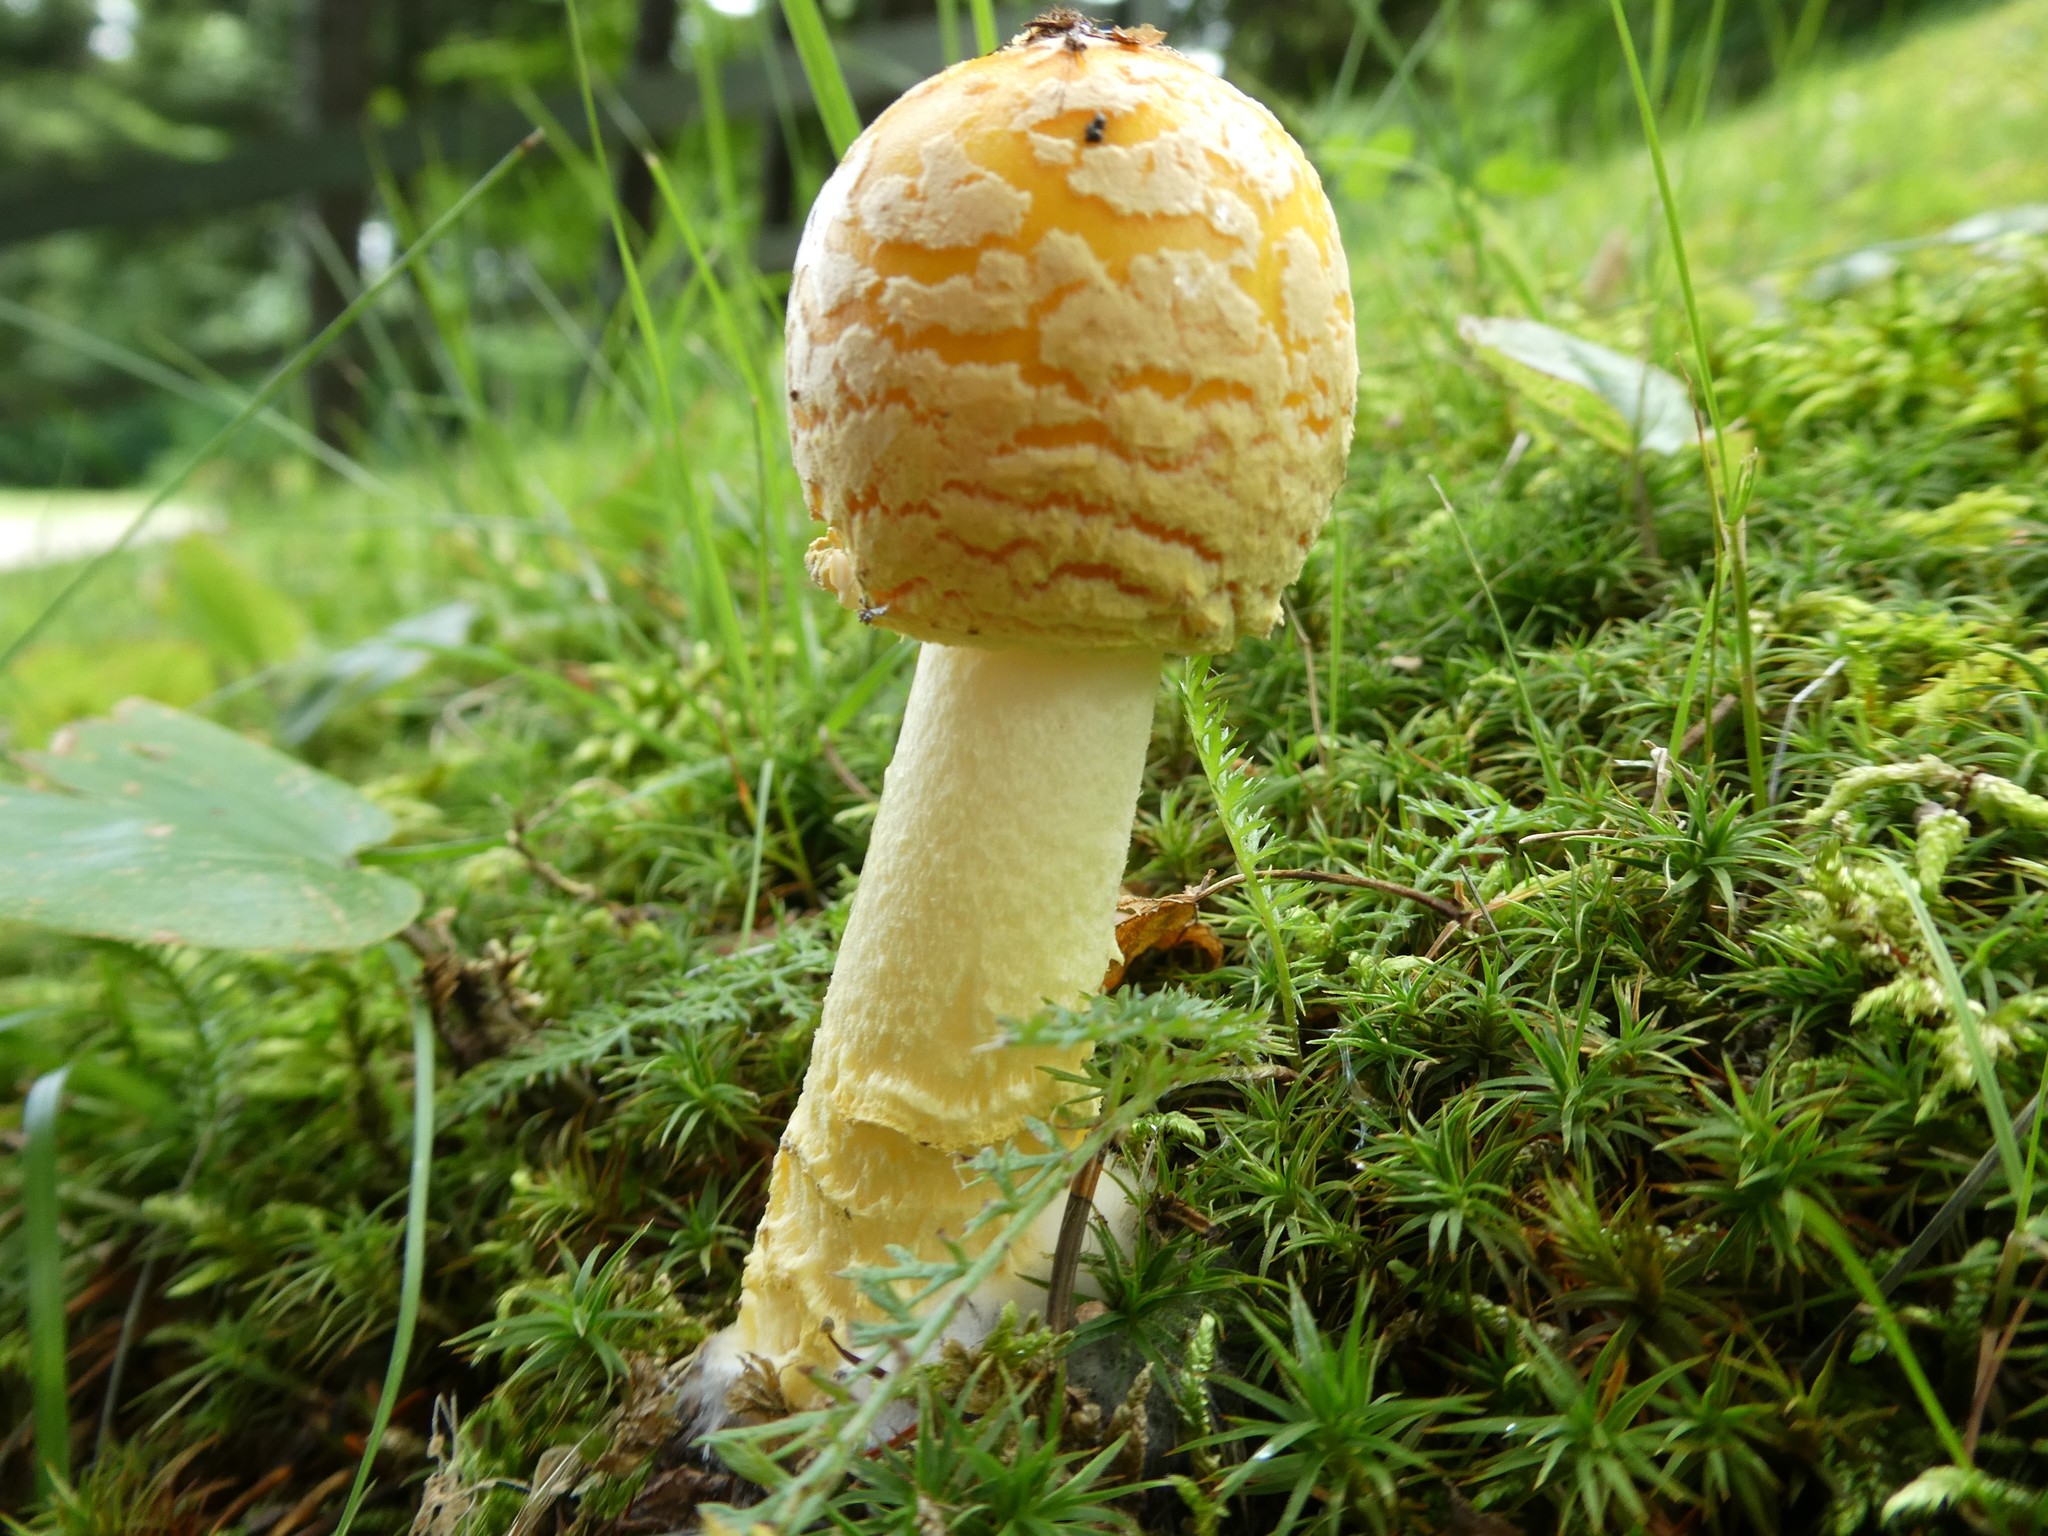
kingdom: Fungi
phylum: Basidiomycota
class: Agaricomycetes
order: Agaricales
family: Amanitaceae
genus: Amanita
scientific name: Amanita muscaria
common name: Fly agaric
